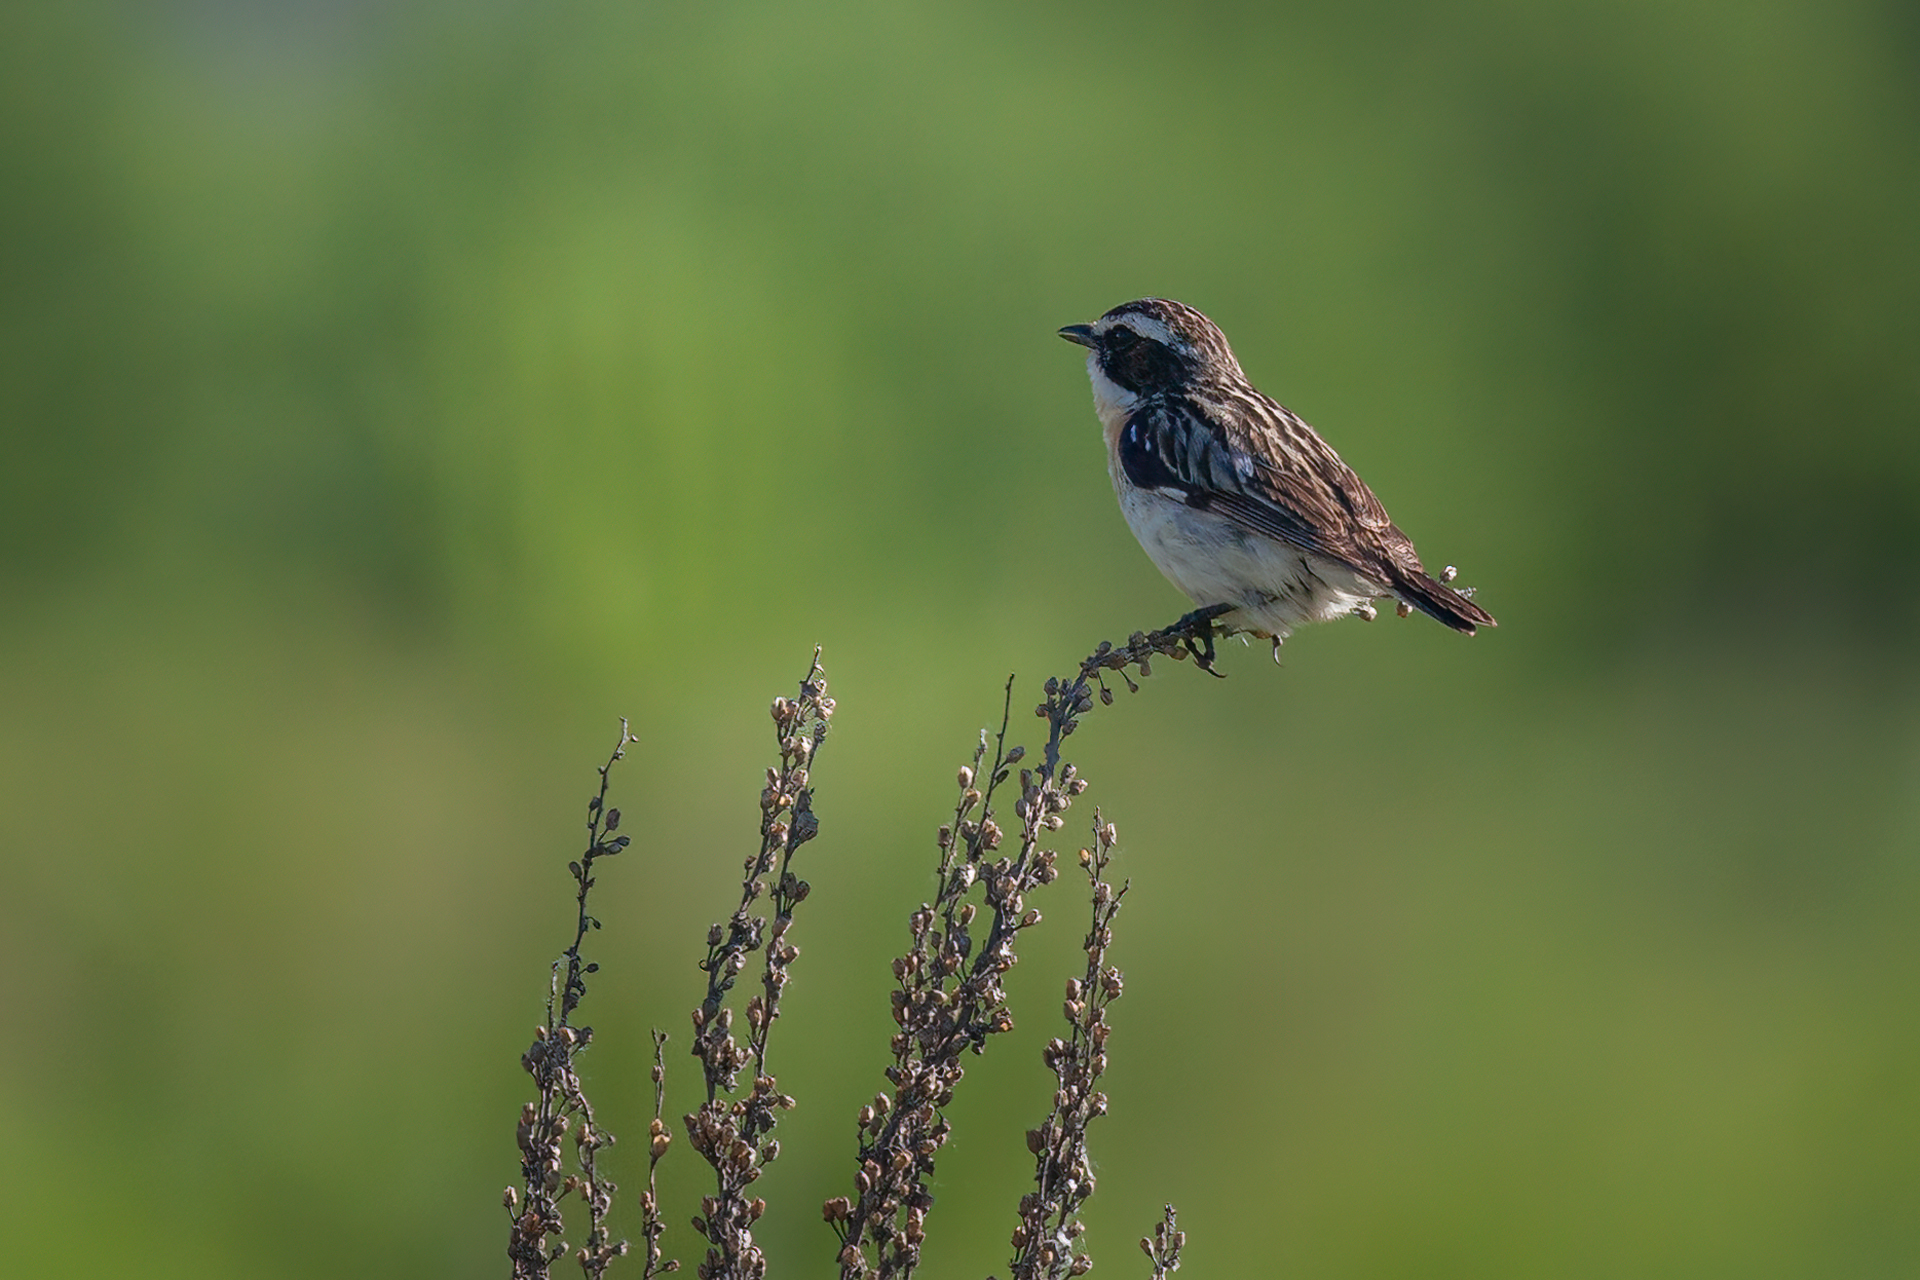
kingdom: Animalia
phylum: Chordata
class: Aves
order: Passeriformes
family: Muscicapidae
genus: Saxicola
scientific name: Saxicola rubetra
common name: Whinchat
